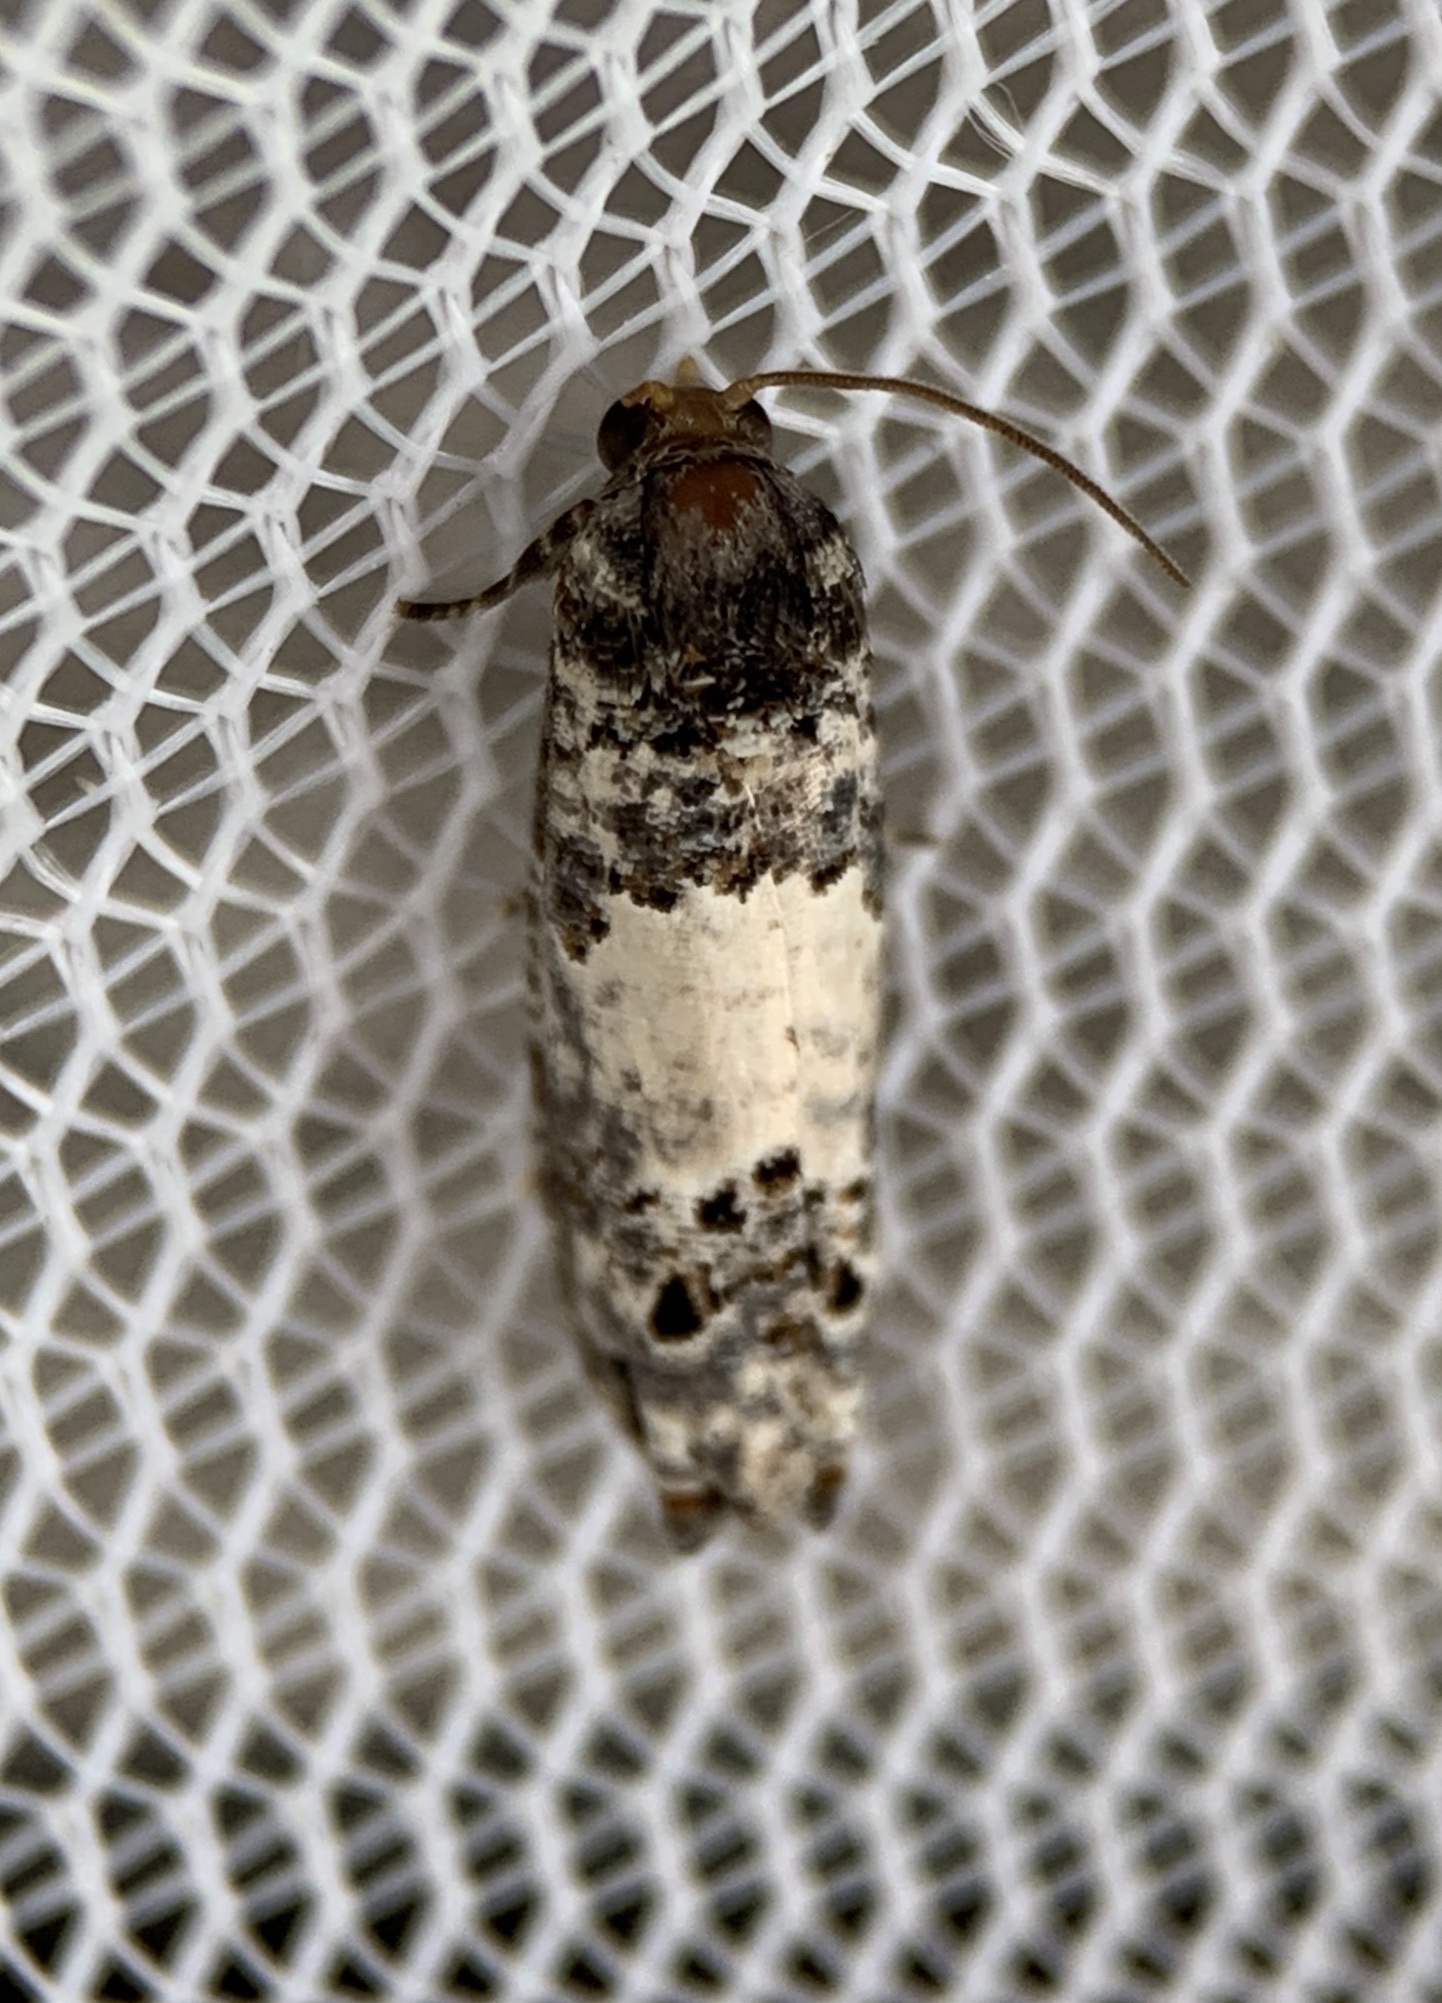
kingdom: Animalia
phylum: Arthropoda
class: Insecta
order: Lepidoptera
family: Tortricidae
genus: Epiblema
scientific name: Epiblema carolinana
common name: Gray-blotched epiblema moth
